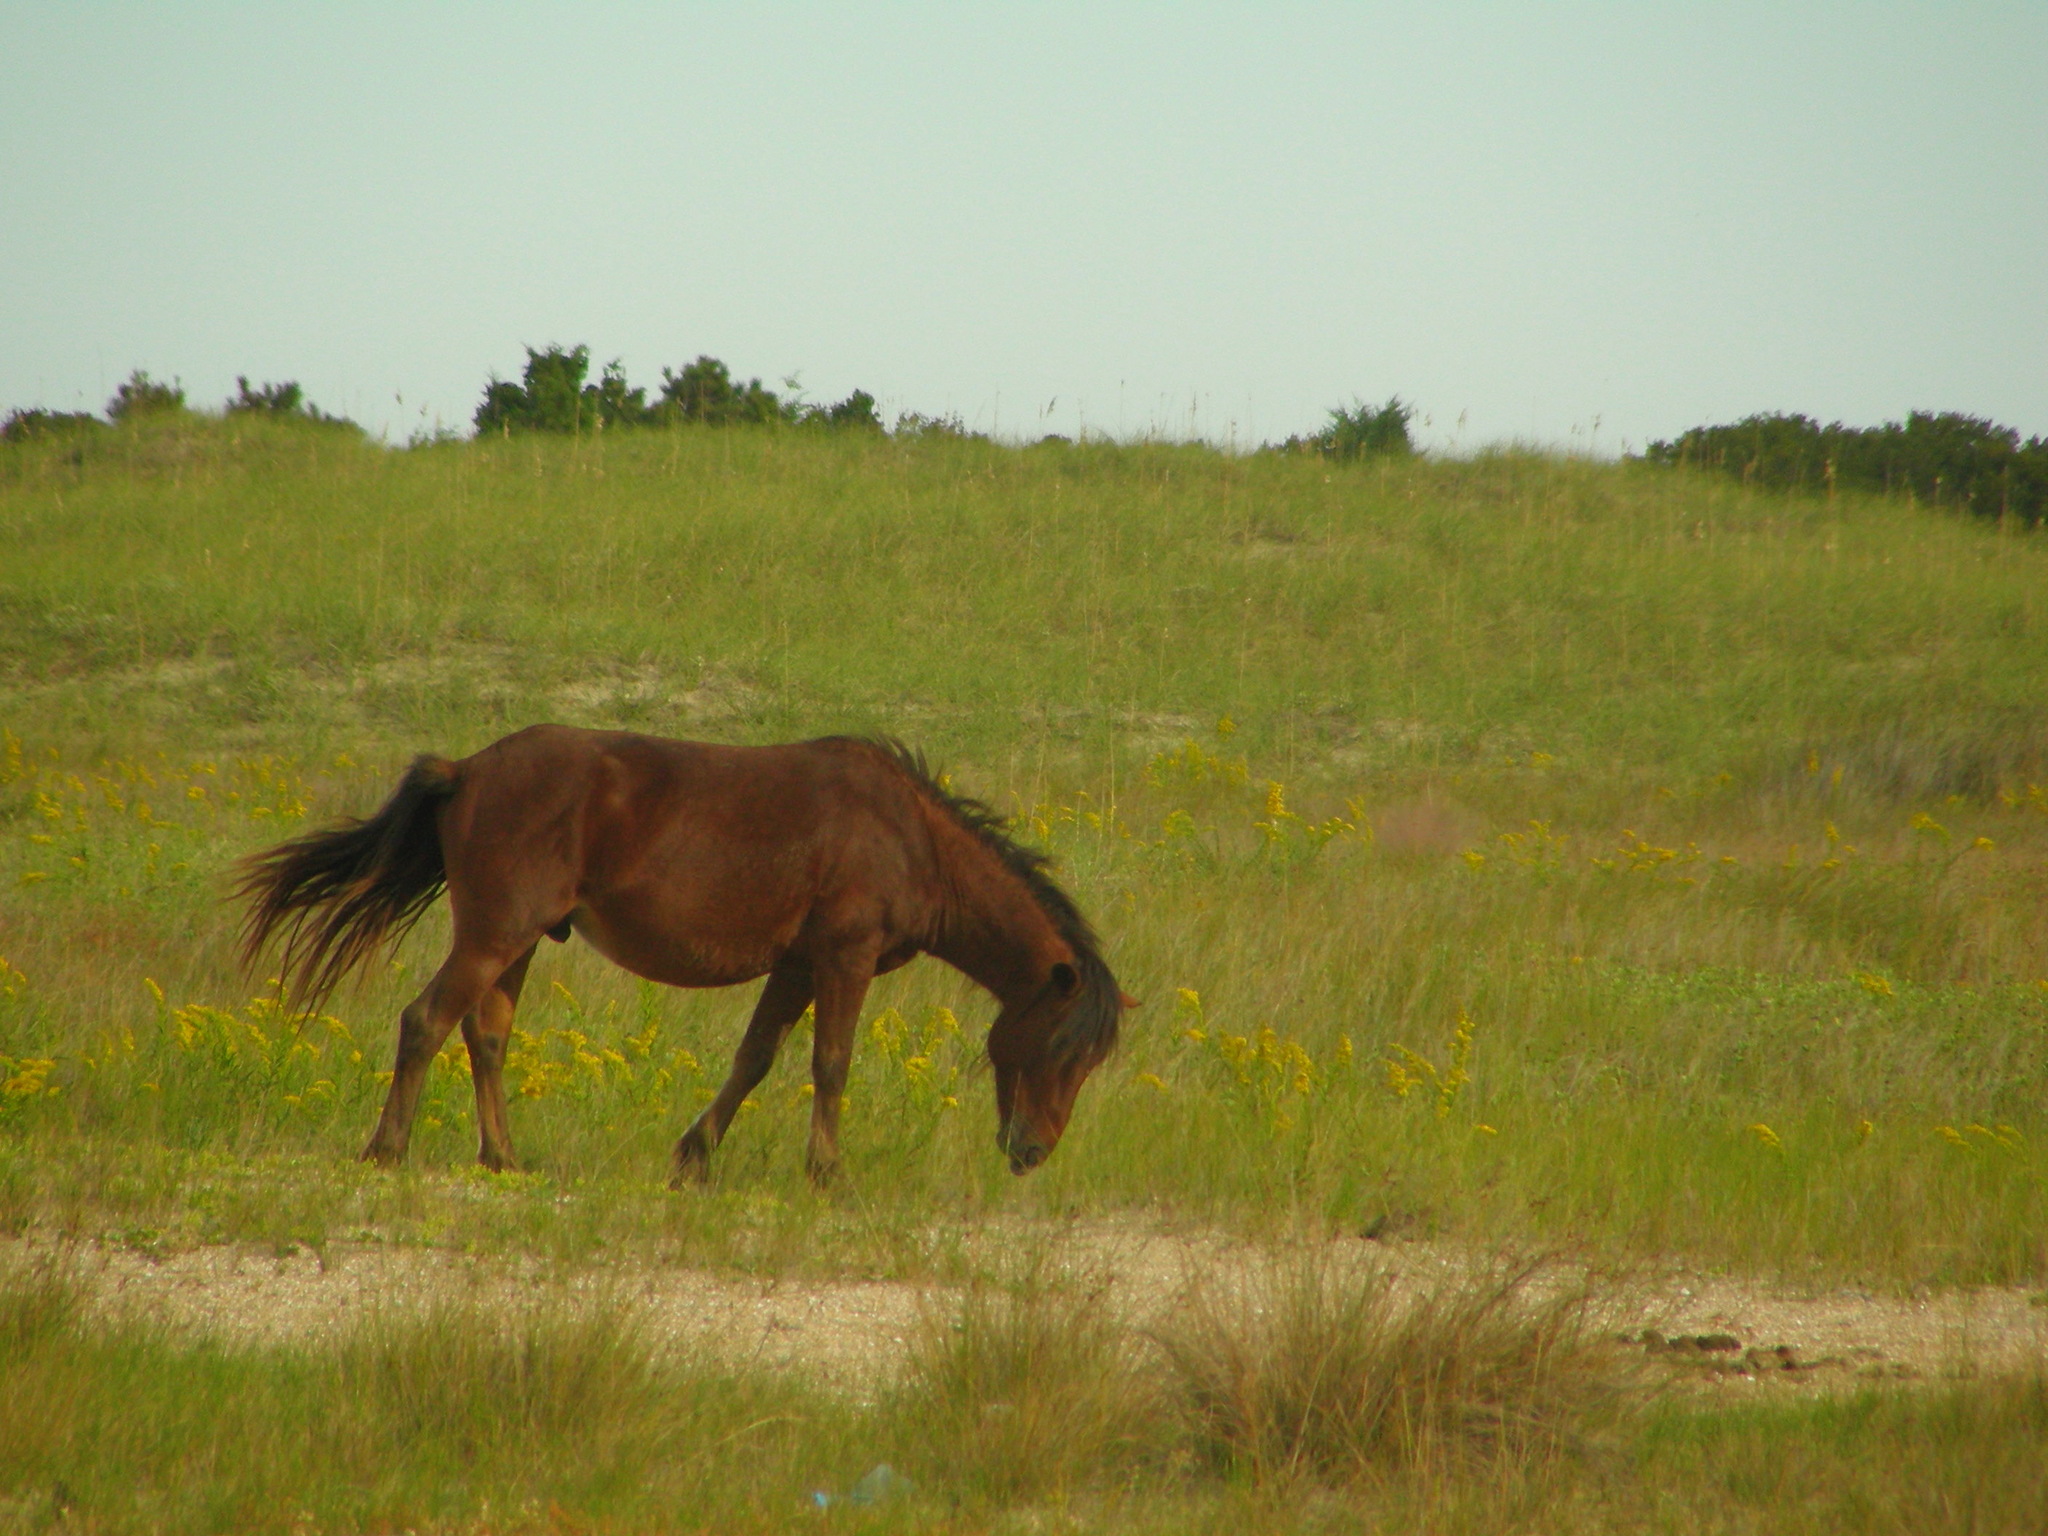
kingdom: Animalia
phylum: Chordata
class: Mammalia
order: Perissodactyla
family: Equidae
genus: Equus
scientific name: Equus caballus
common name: Horse
